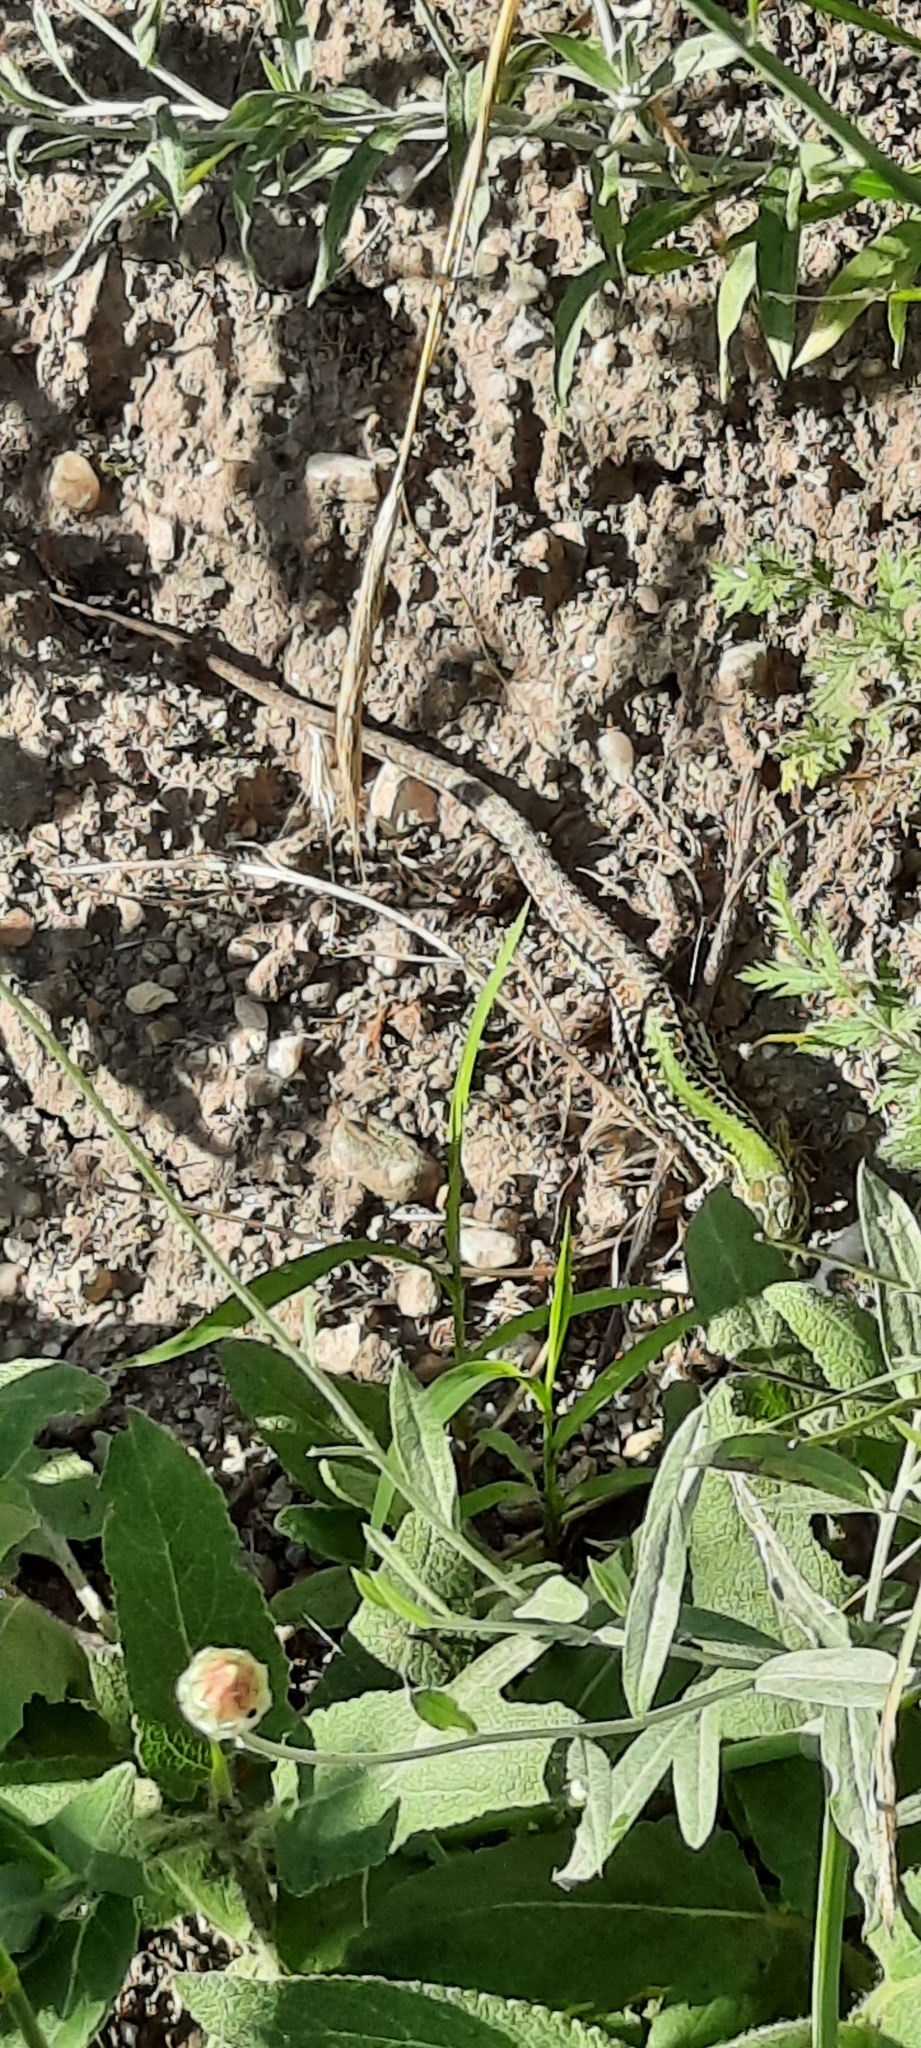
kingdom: Animalia
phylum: Chordata
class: Squamata
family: Lacertidae
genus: Podarcis
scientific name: Podarcis tauricus
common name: Balkan wall lizard
